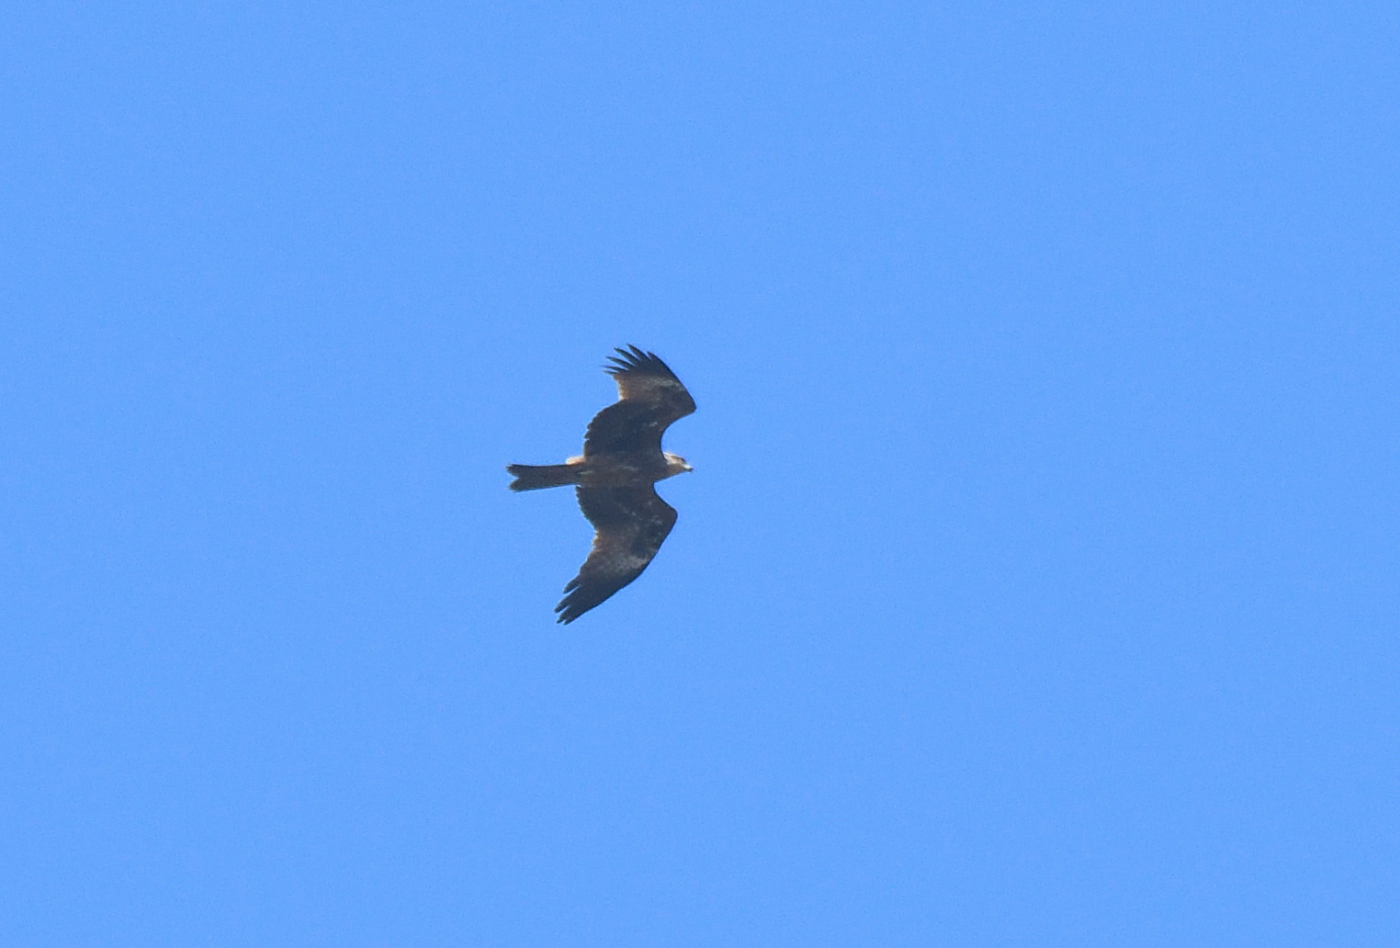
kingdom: Animalia
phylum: Chordata
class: Aves
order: Accipitriformes
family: Accipitridae
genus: Milvus
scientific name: Milvus migrans
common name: Black kite
